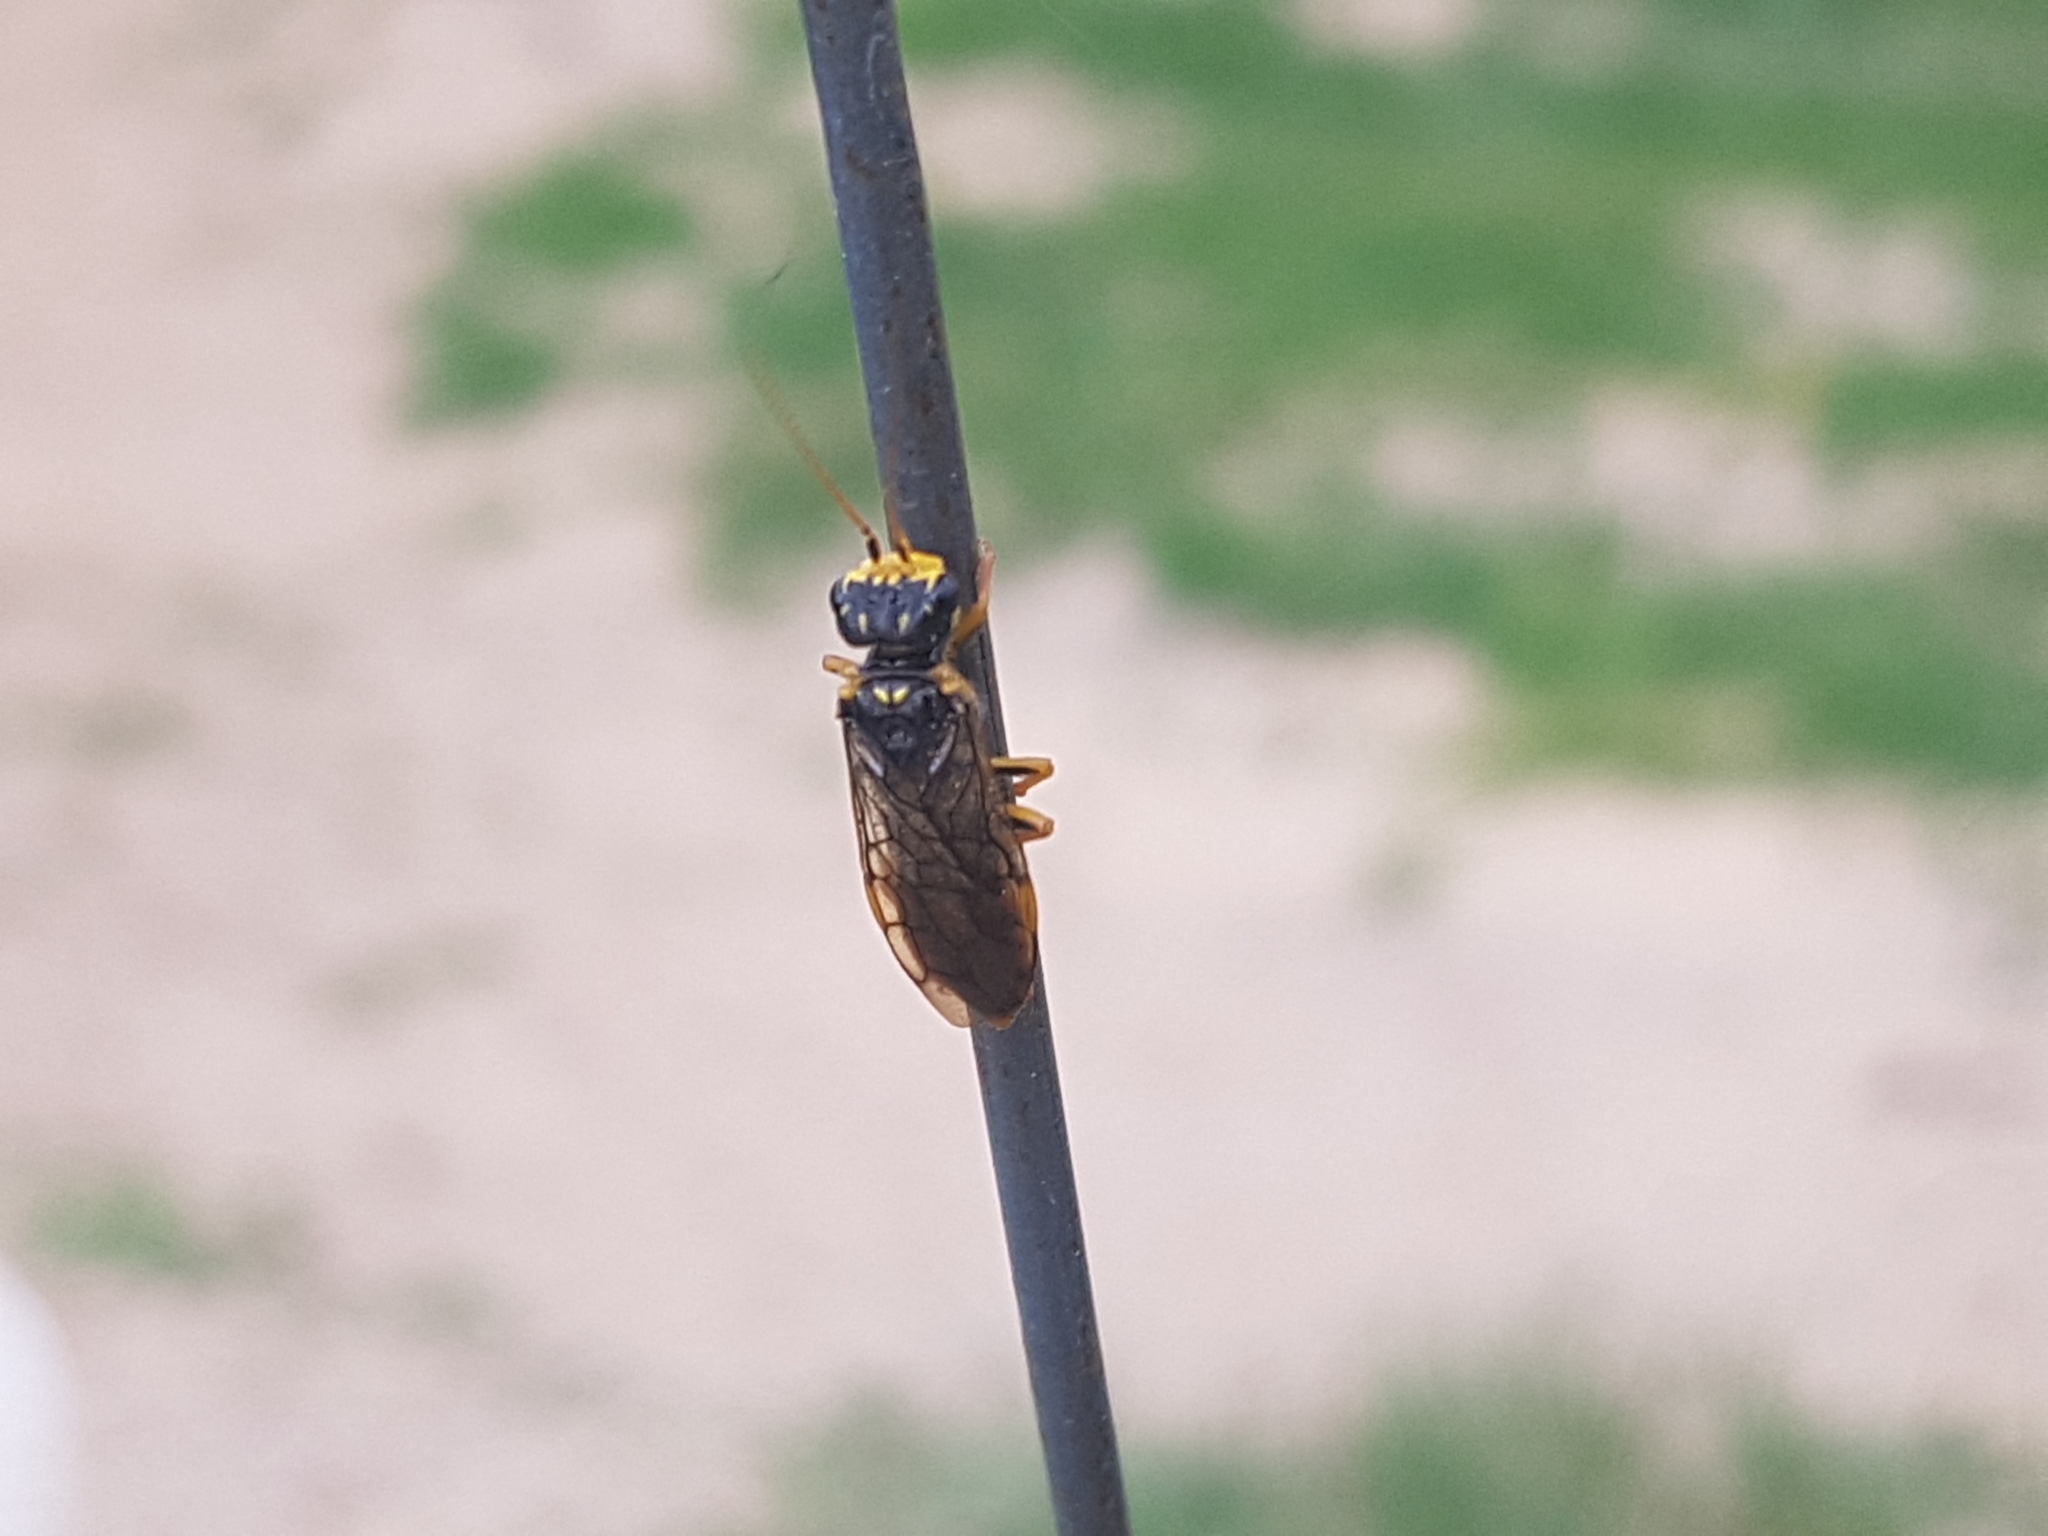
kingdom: Animalia
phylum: Arthropoda
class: Insecta
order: Hymenoptera
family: Pamphiliidae
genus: Acantholyda
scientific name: Acantholyda posticalis
